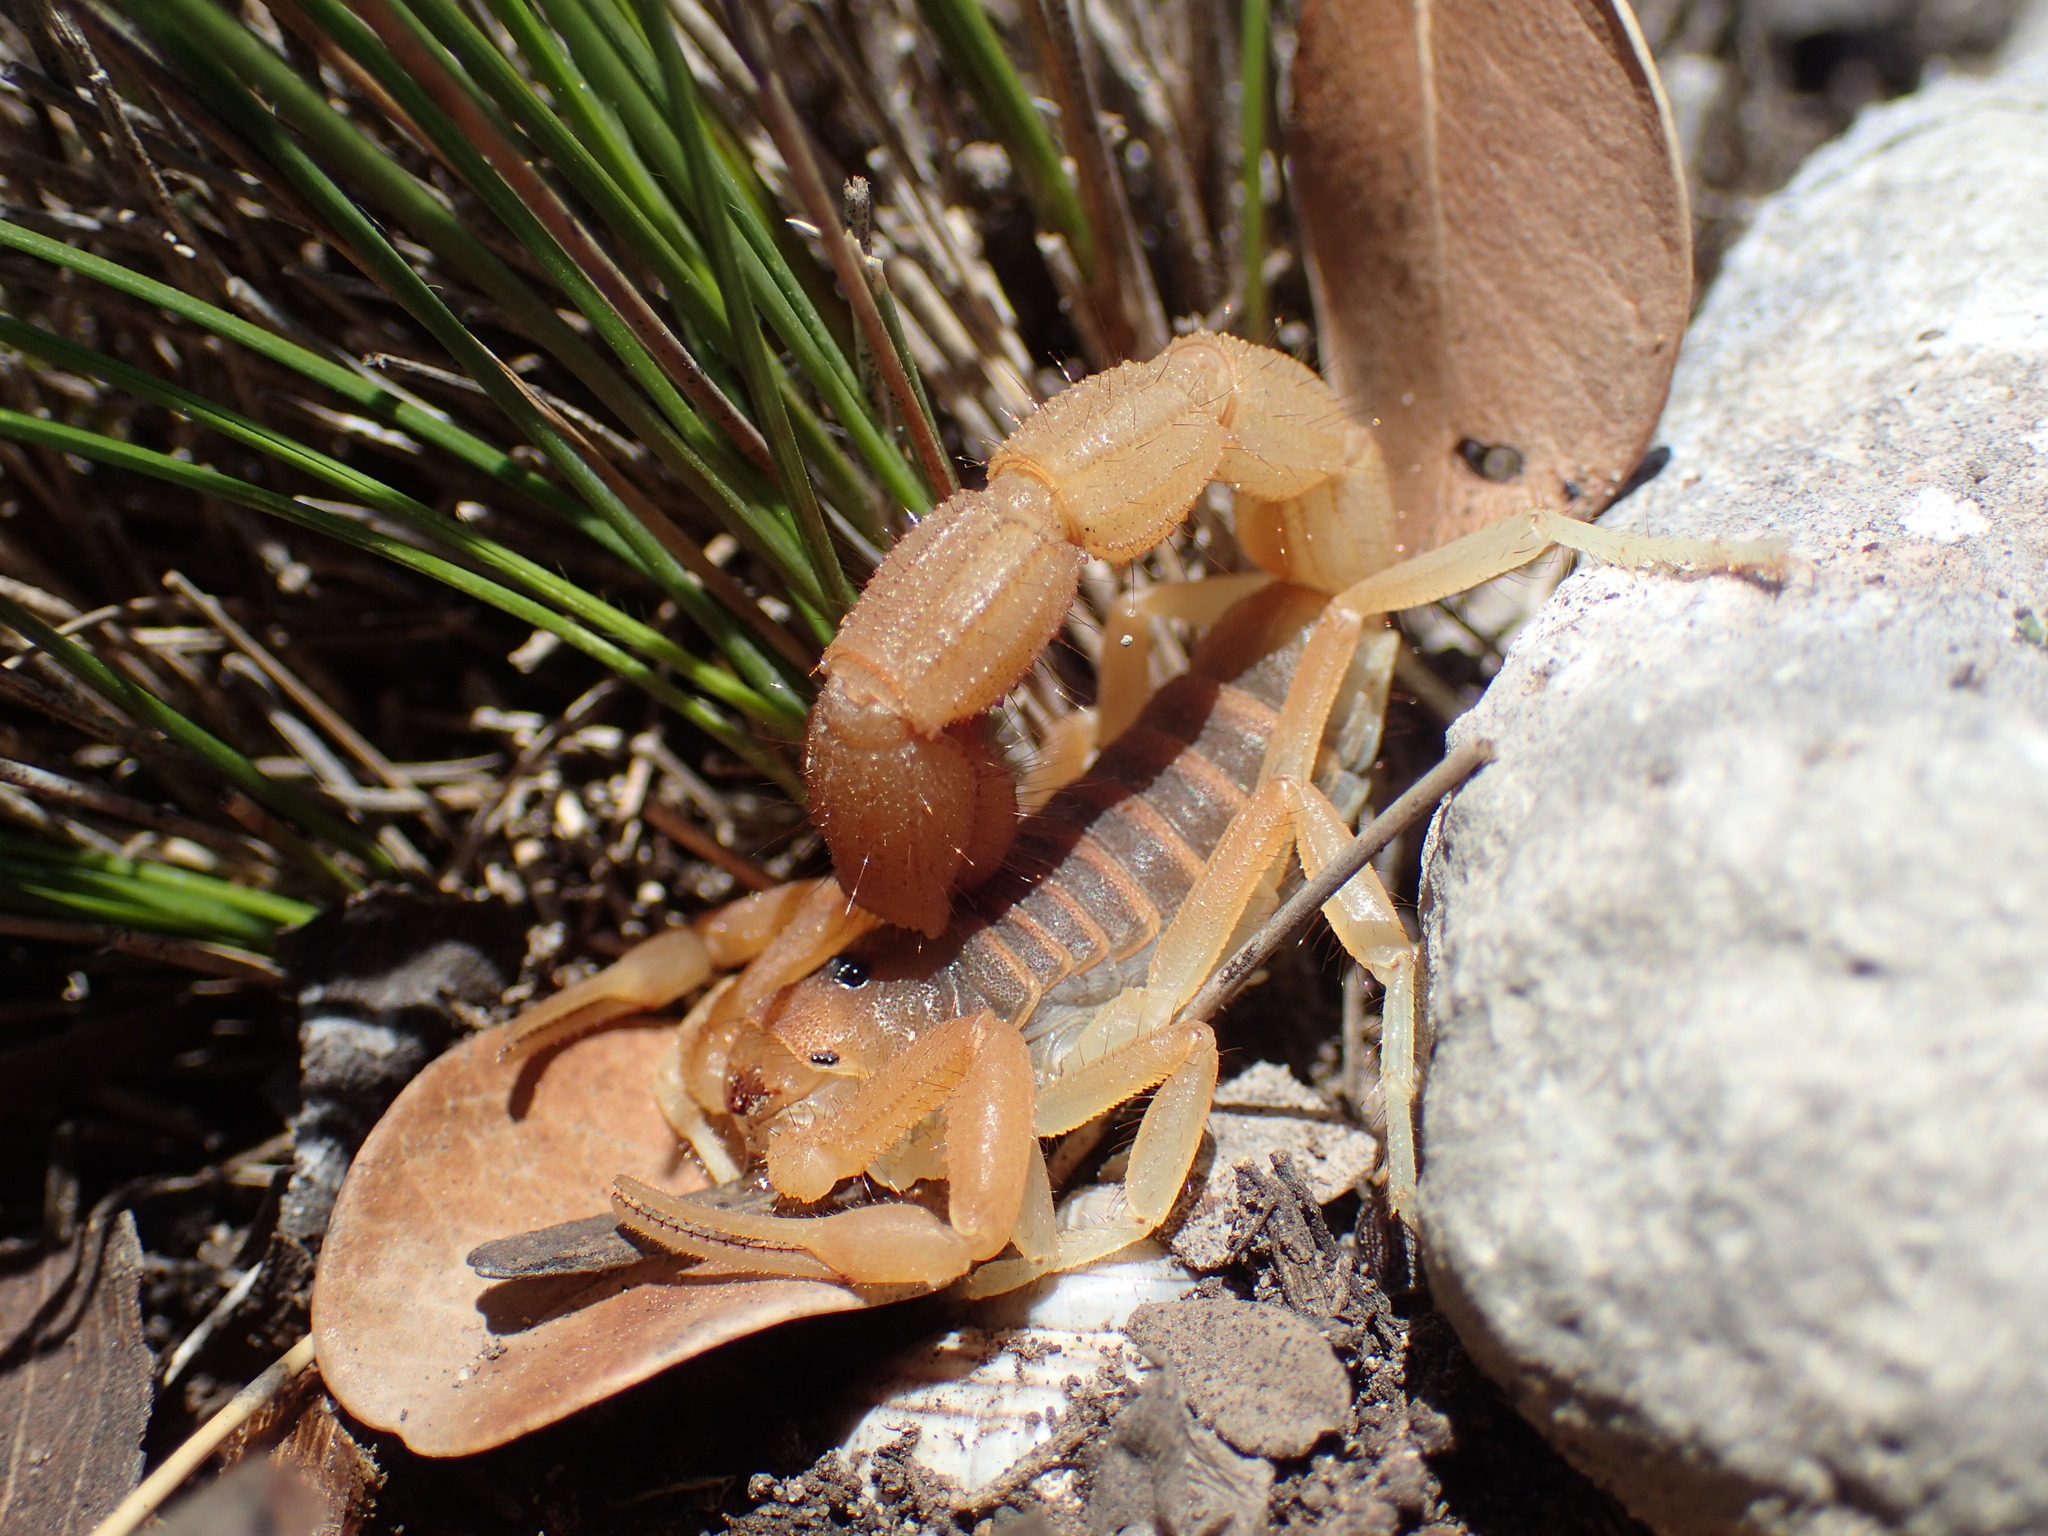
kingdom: Animalia
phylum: Arthropoda
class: Arachnida
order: Scorpiones
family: Buthidae
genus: Parabuthus
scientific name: Parabuthus planicauda
